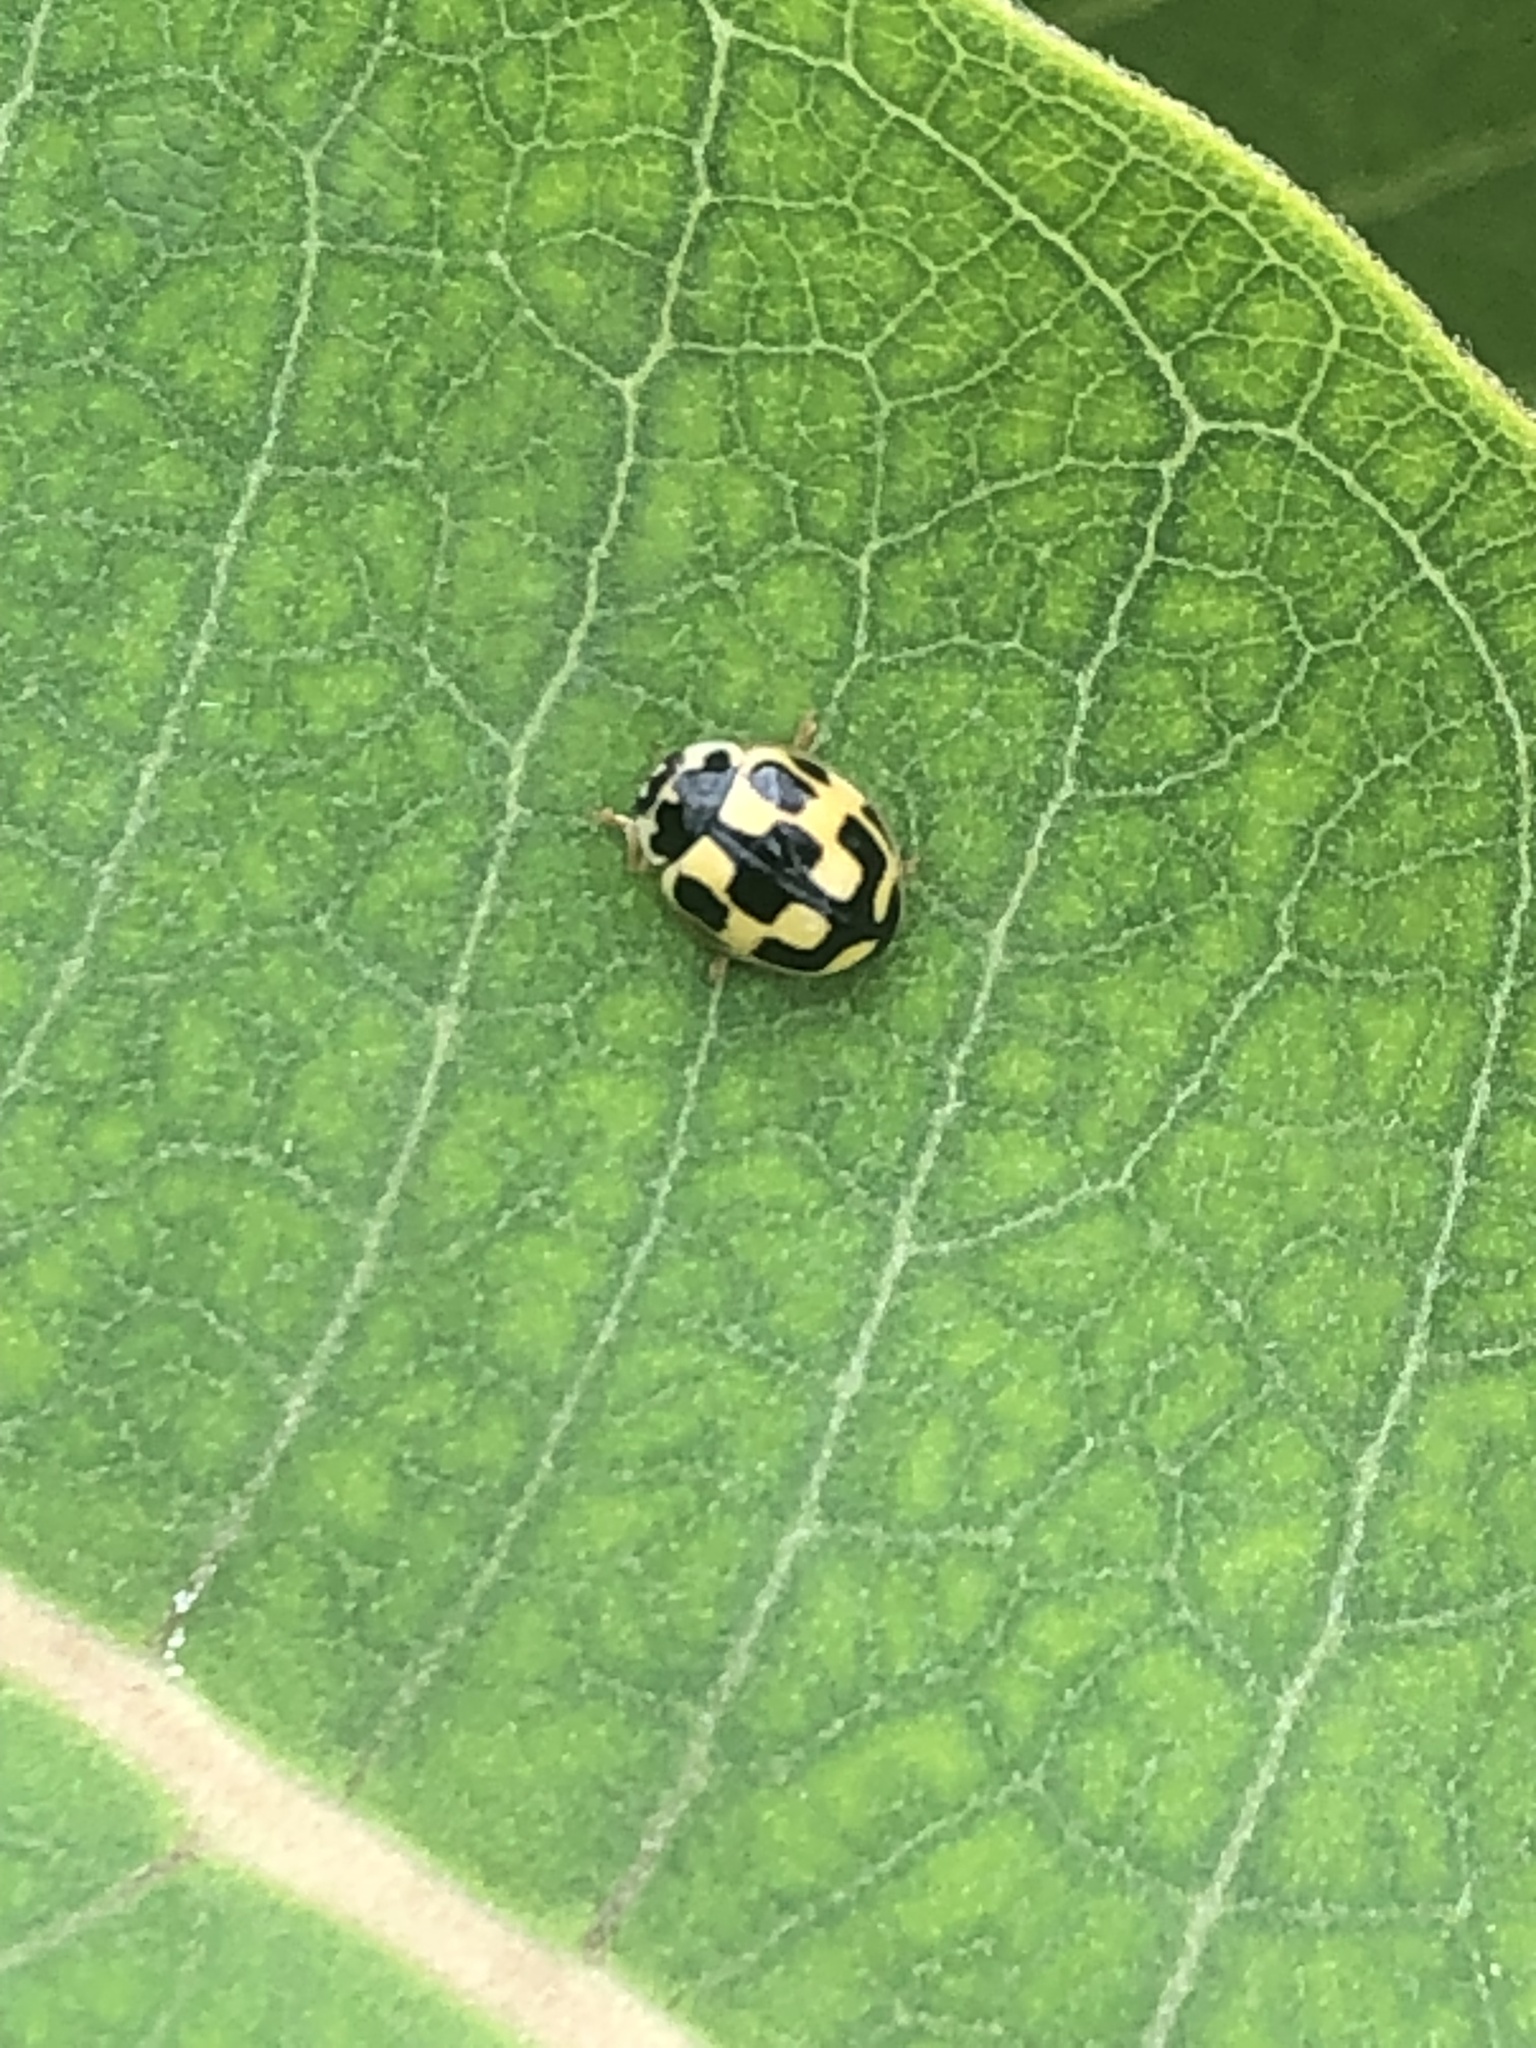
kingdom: Animalia
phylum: Arthropoda
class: Insecta
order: Coleoptera
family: Coccinellidae
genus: Propylaea
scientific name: Propylaea quatuordecimpunctata
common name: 14-spotted ladybird beetle
